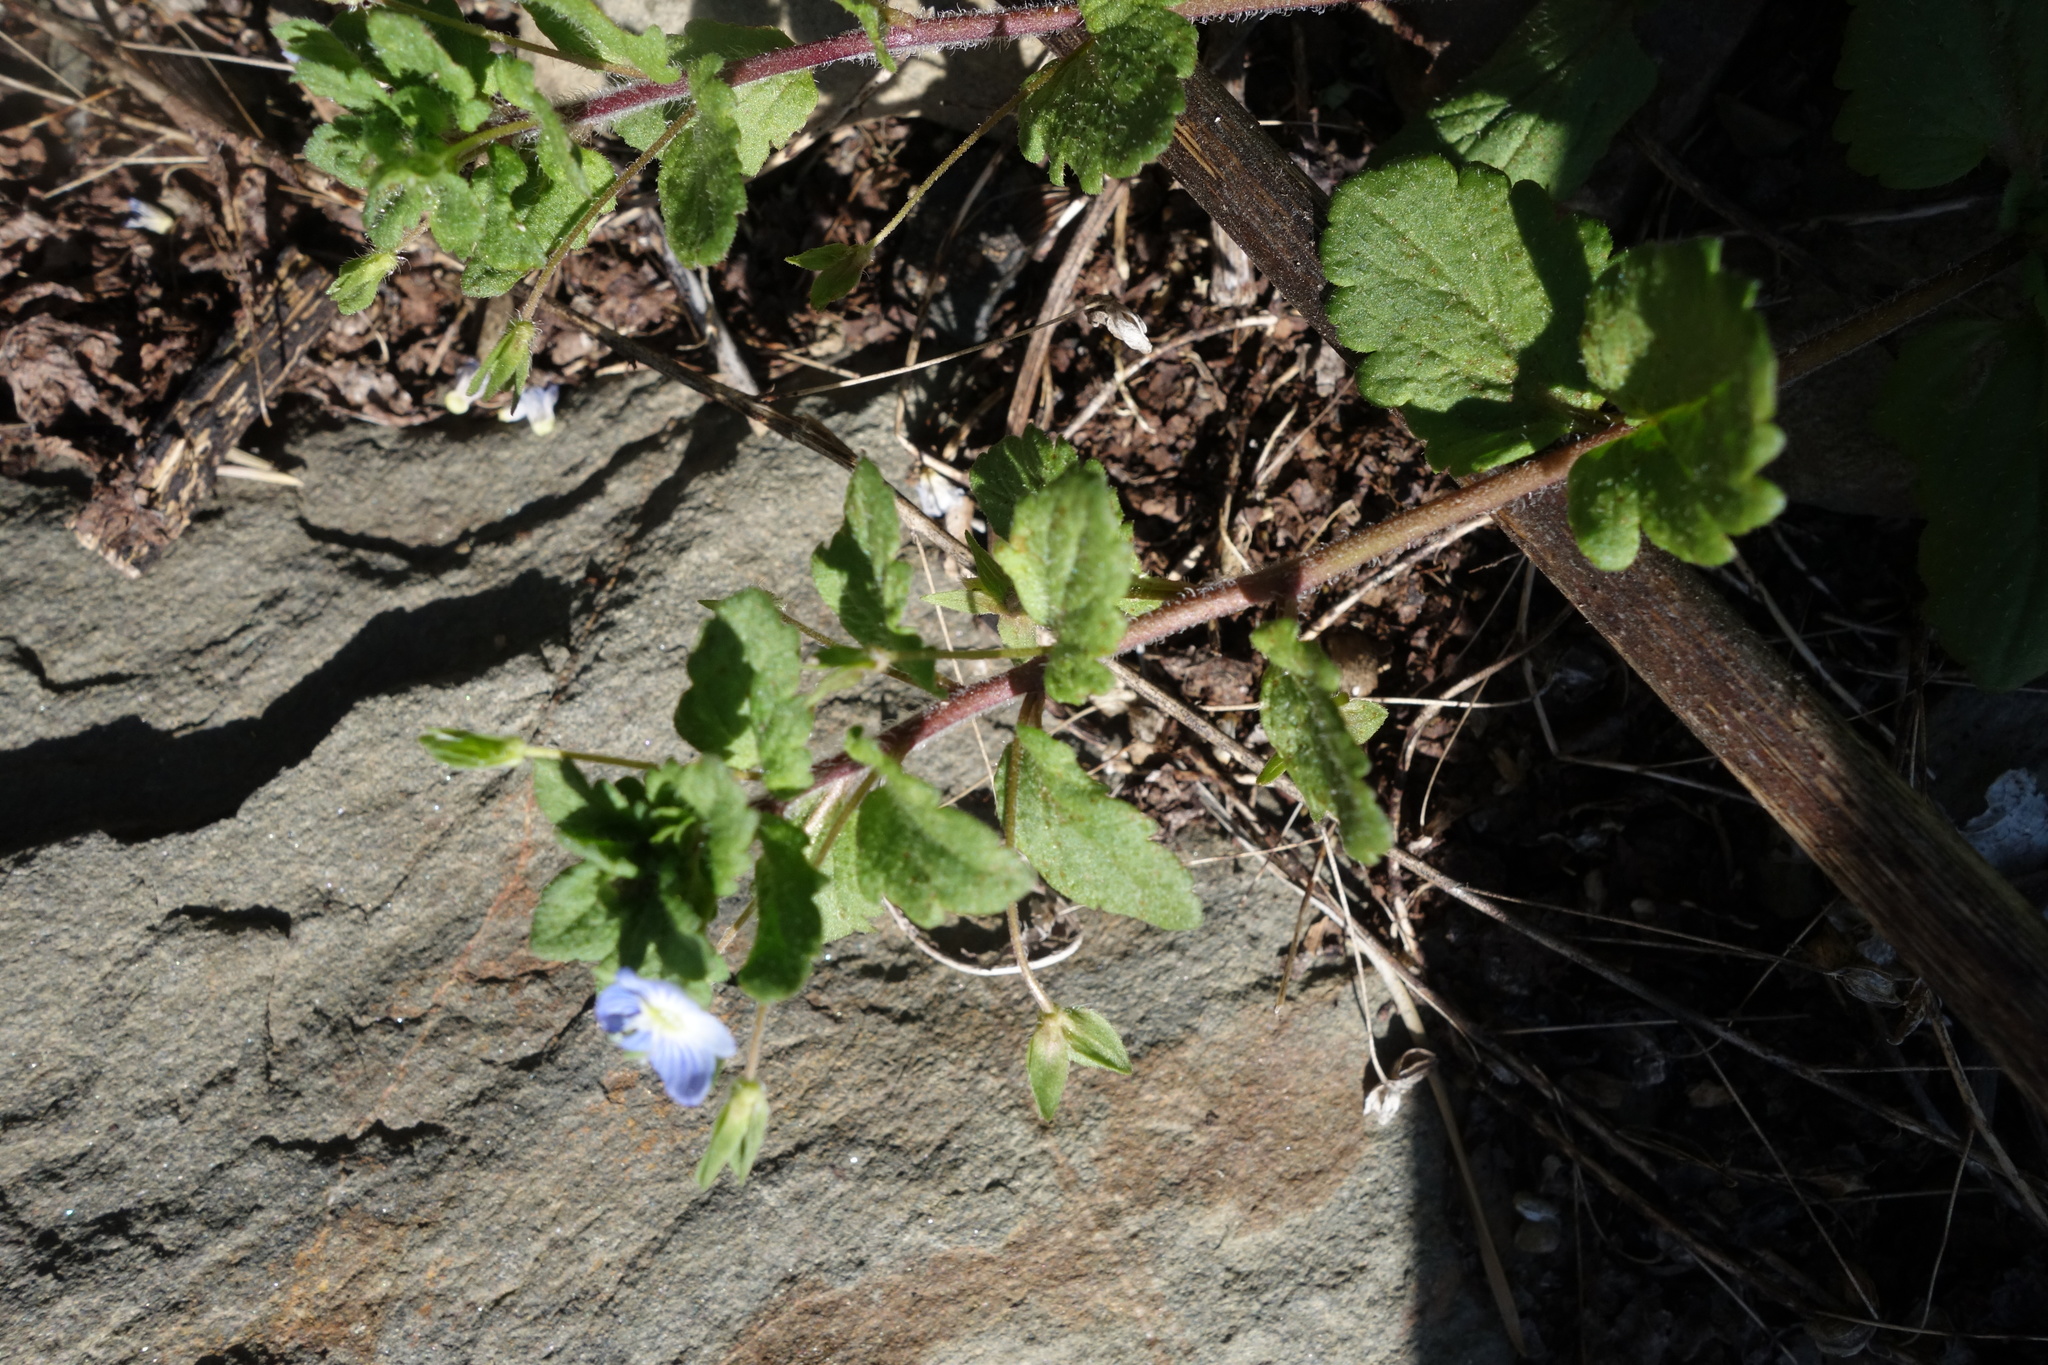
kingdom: Plantae
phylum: Tracheophyta
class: Magnoliopsida
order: Lamiales
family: Plantaginaceae
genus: Veronica
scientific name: Veronica persica
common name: Common field-speedwell
